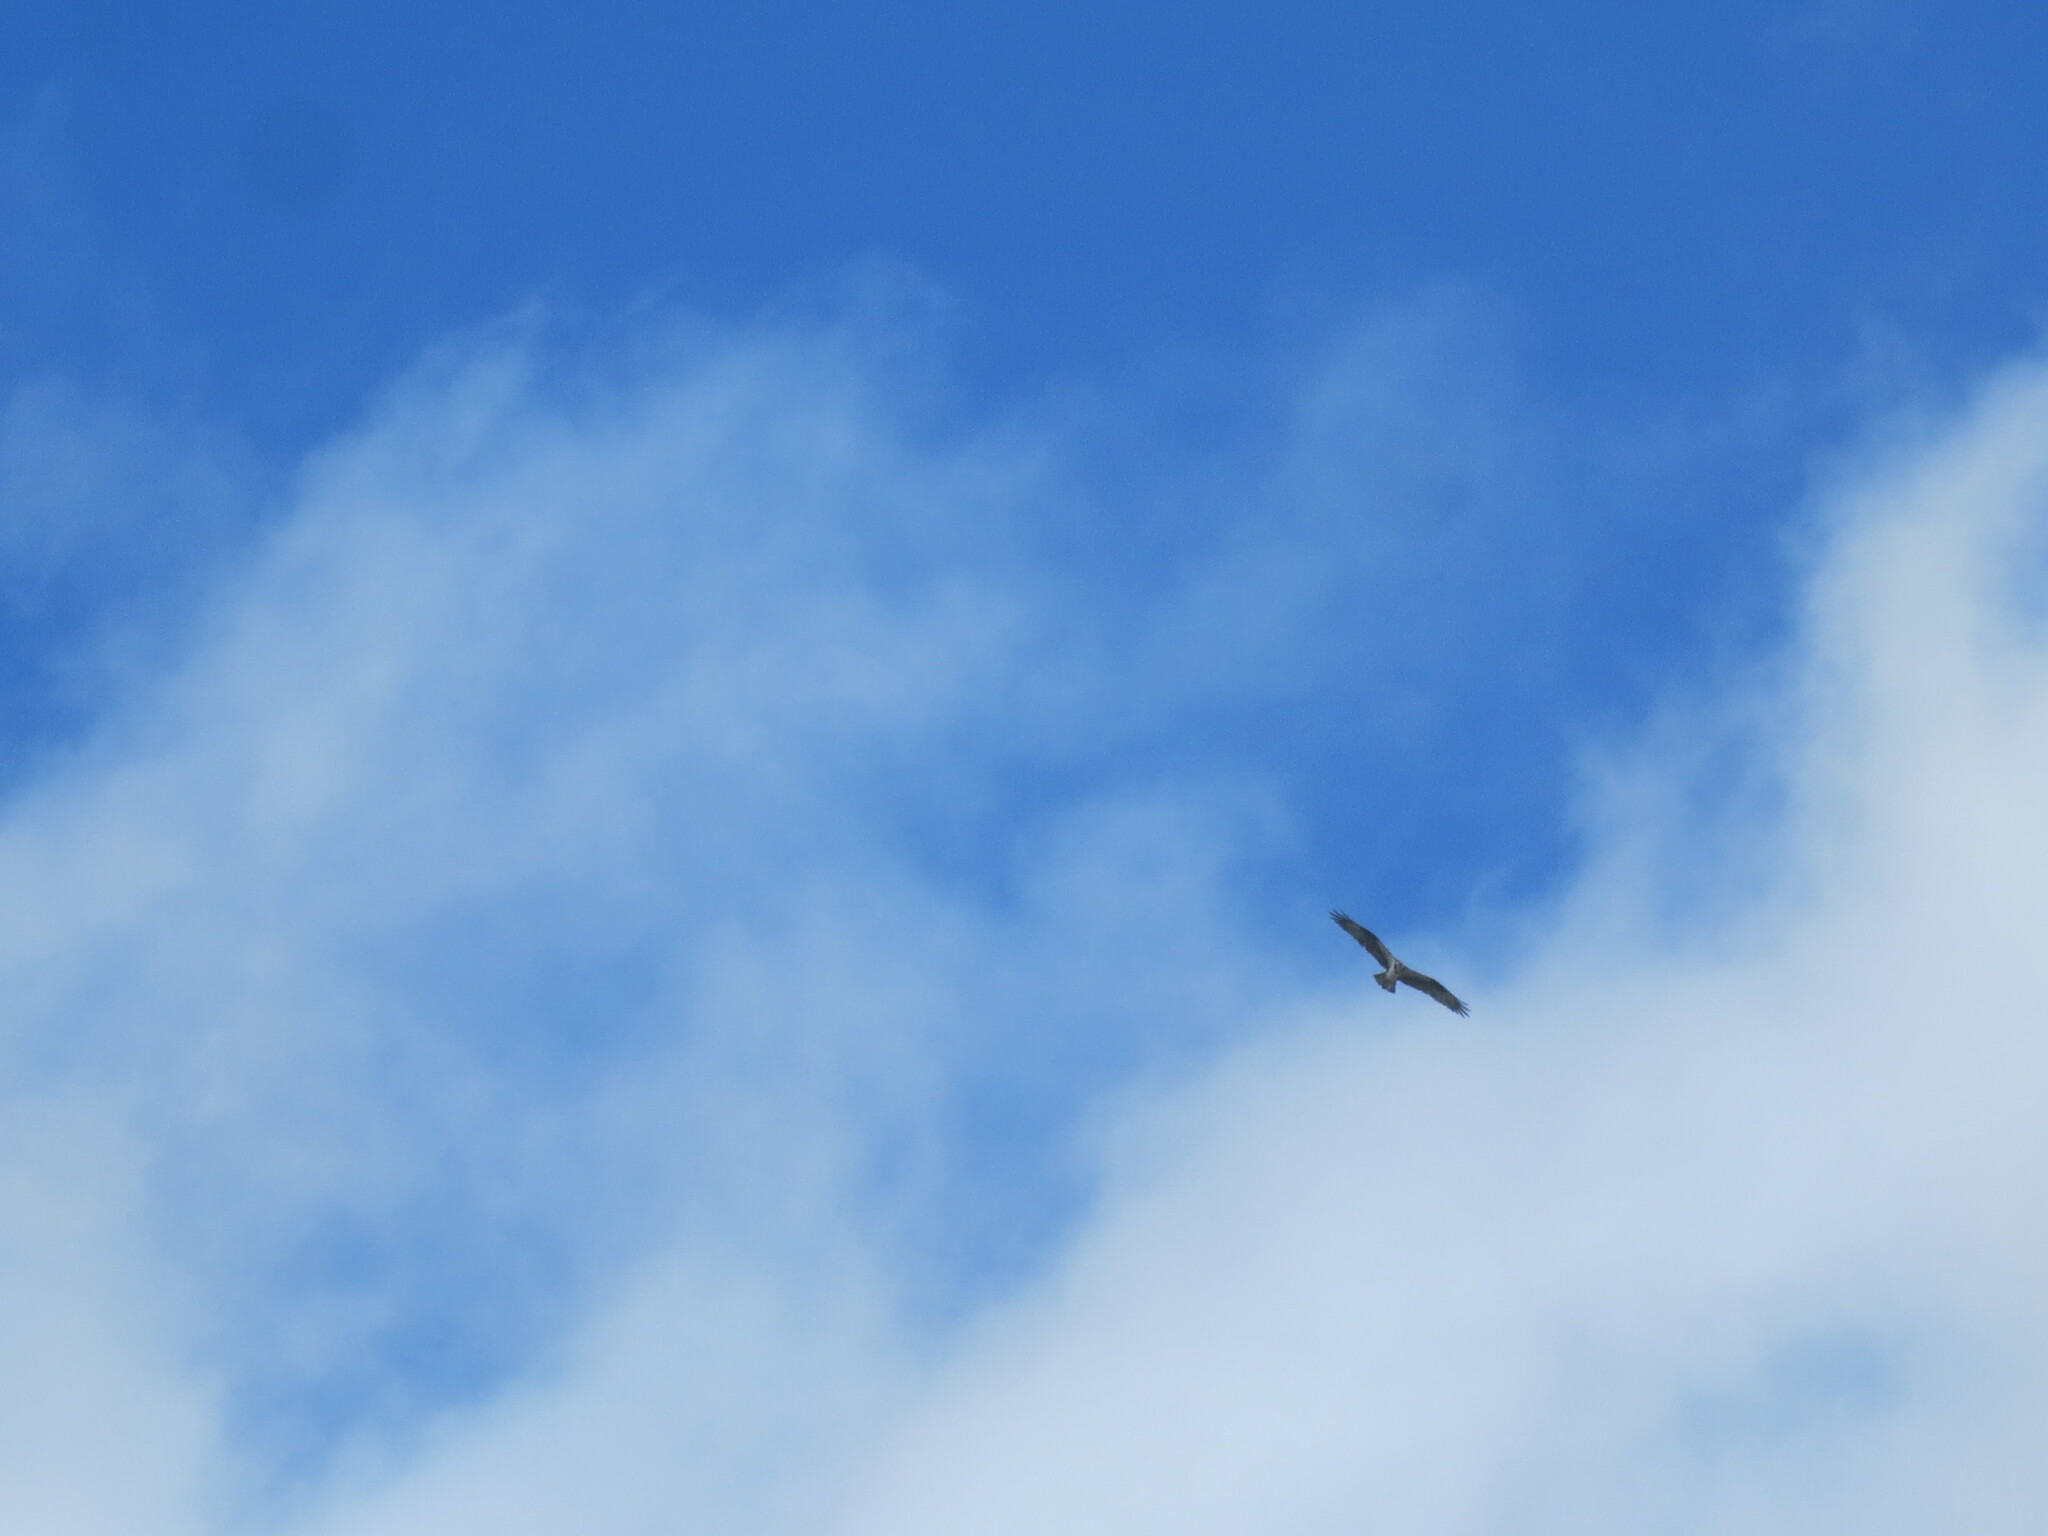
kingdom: Animalia
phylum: Chordata
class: Aves
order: Accipitriformes
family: Pandionidae
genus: Pandion
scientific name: Pandion haliaetus
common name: Osprey
